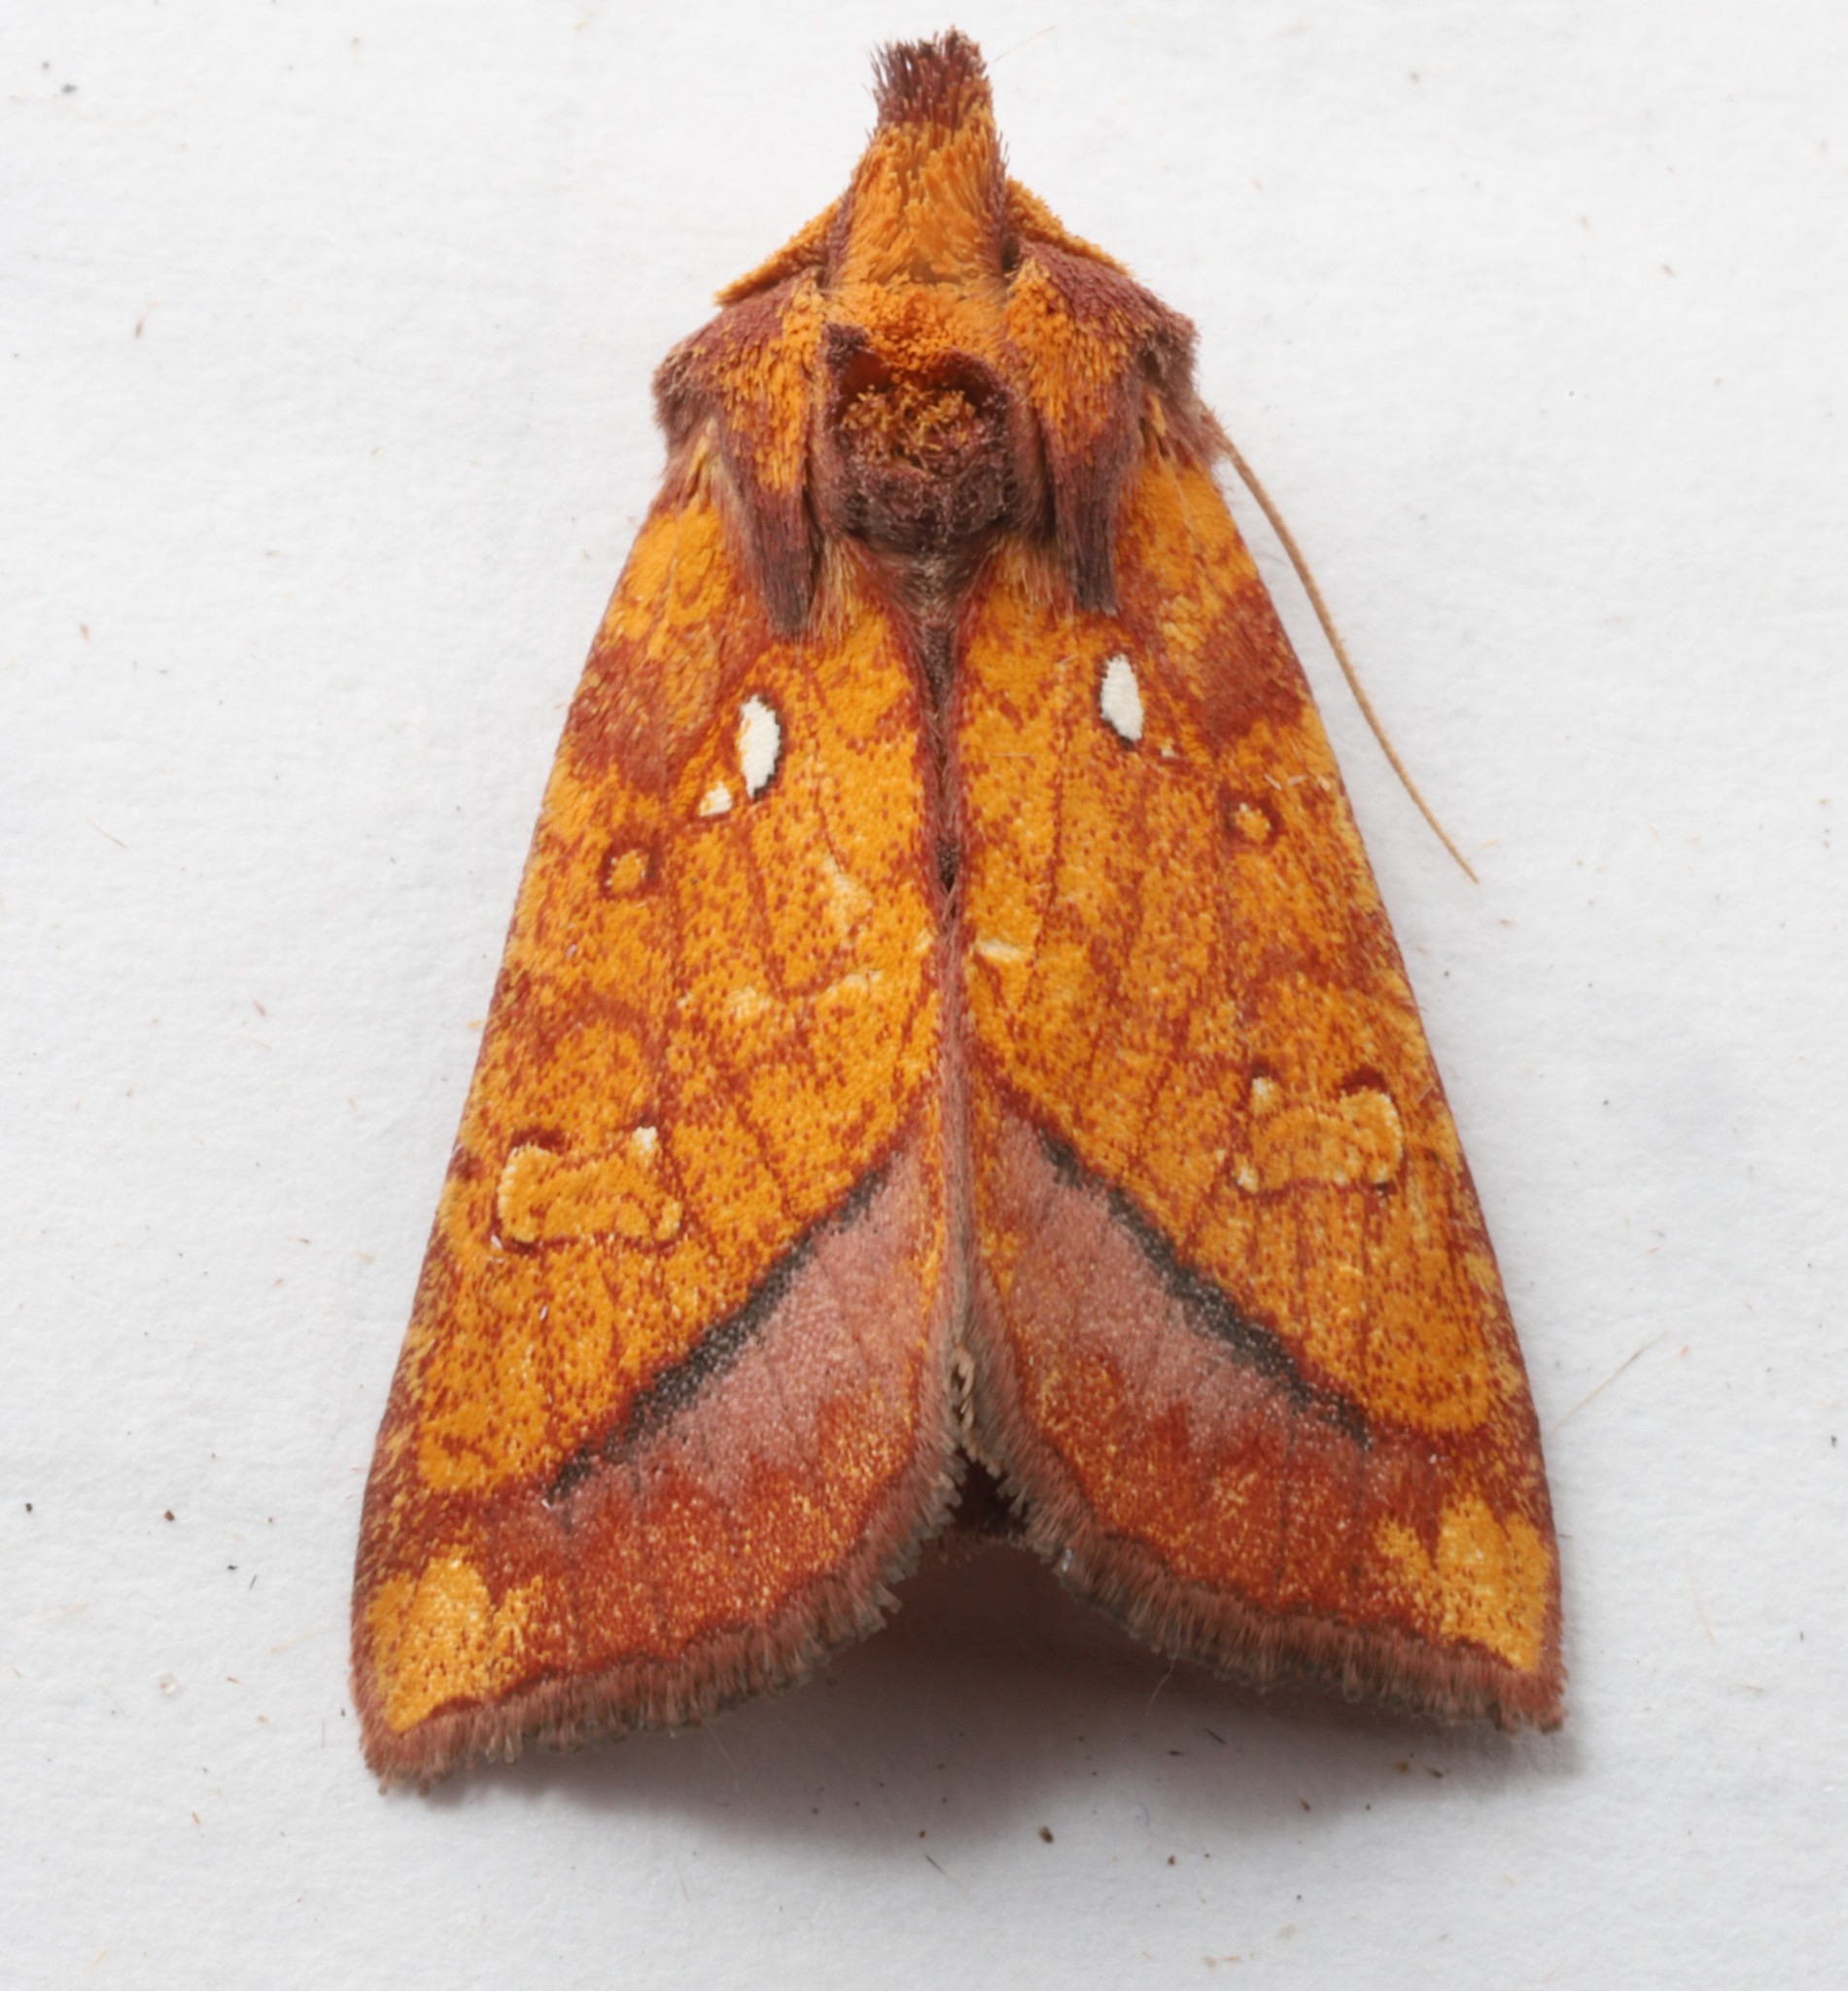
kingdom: Animalia
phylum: Arthropoda
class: Insecta
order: Lepidoptera
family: Noctuidae
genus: Papaipema
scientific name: Papaipema leucostigma
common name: Columbine borer moth
